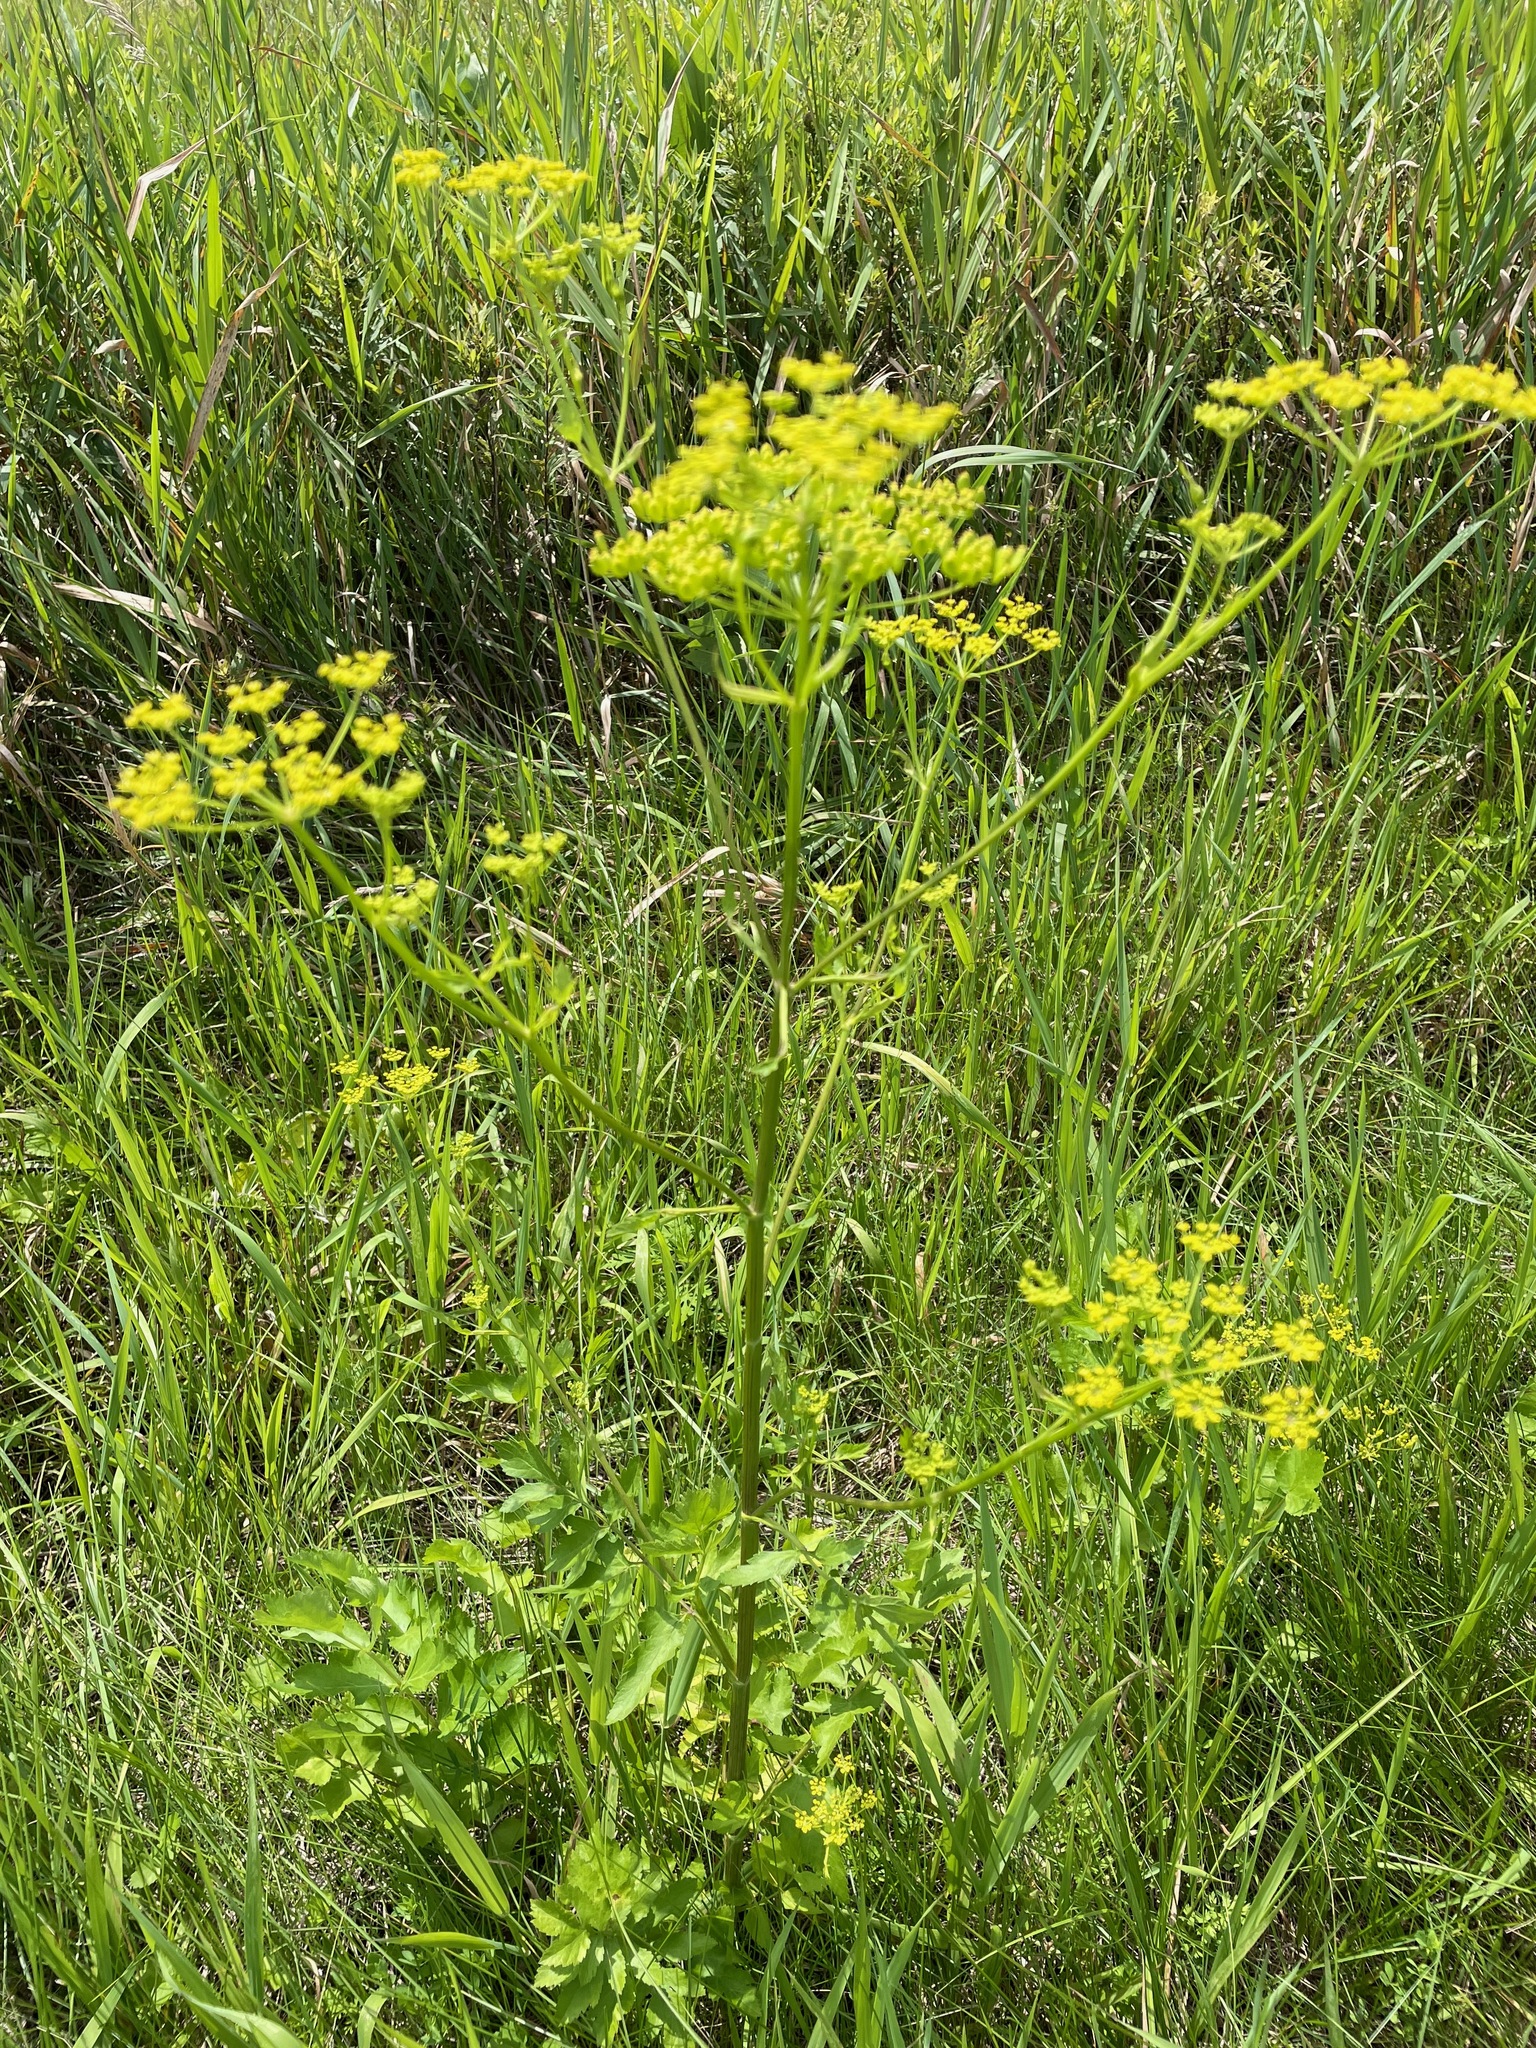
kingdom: Plantae
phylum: Tracheophyta
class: Magnoliopsida
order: Apiales
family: Apiaceae
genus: Pastinaca
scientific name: Pastinaca sativa
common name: Wild parsnip
